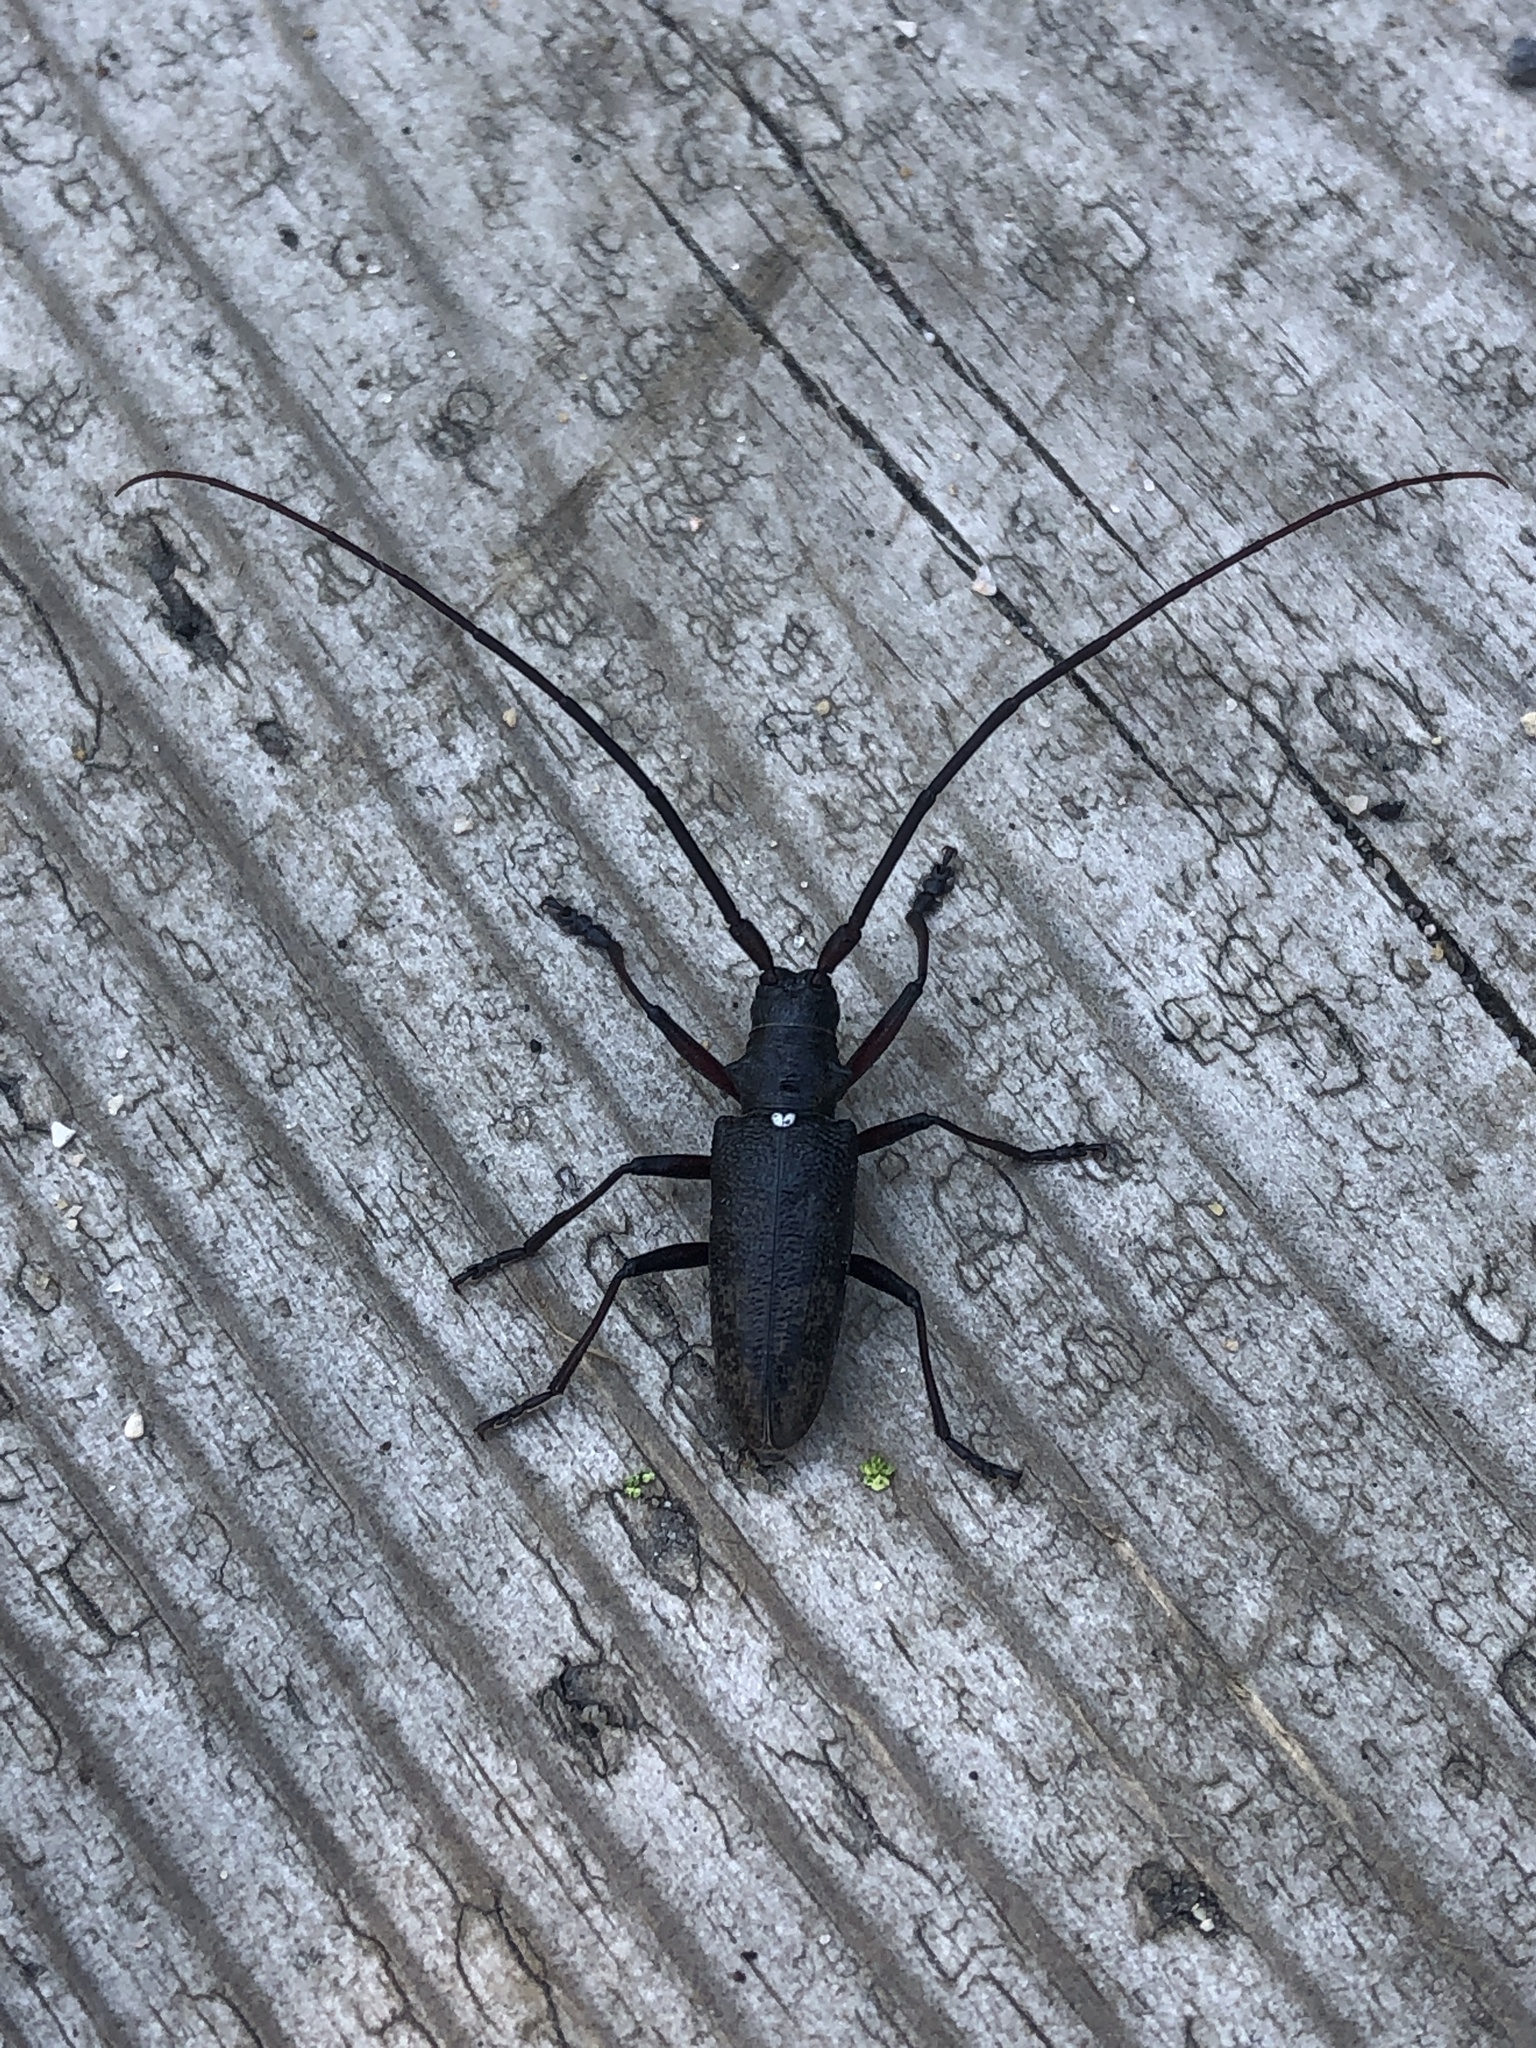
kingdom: Animalia
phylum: Arthropoda
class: Insecta
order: Coleoptera
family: Cerambycidae
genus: Monochamus
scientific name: Monochamus scutellatus
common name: White-spotted sawyer beetle
